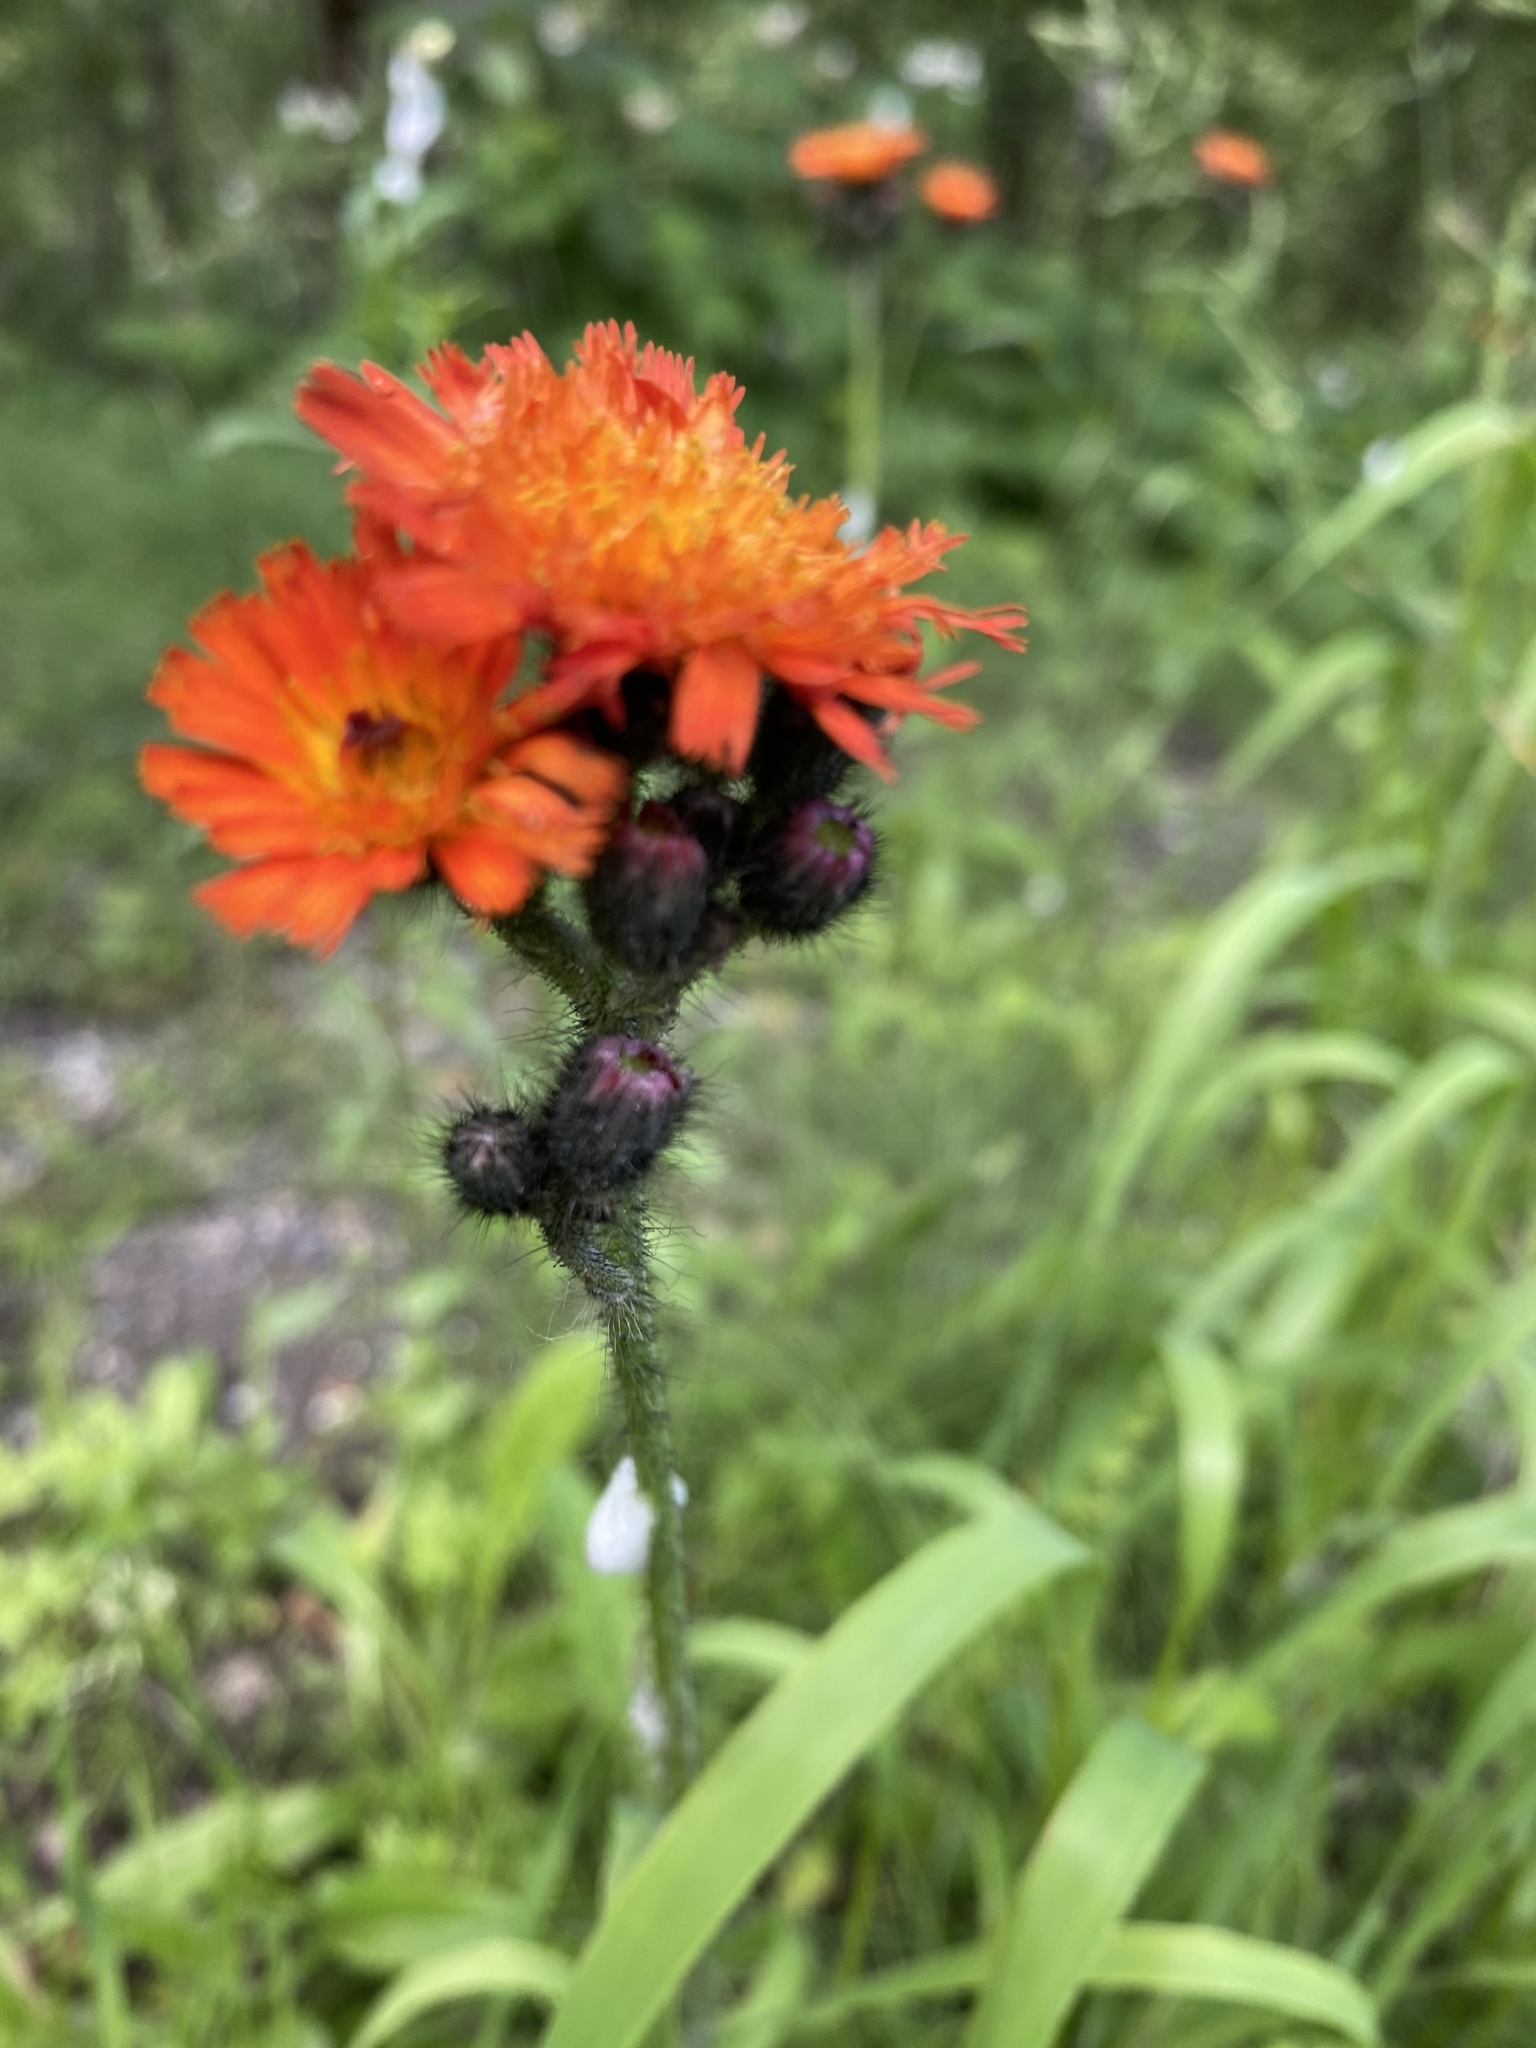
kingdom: Plantae
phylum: Tracheophyta
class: Magnoliopsida
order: Asterales
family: Asteraceae
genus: Pilosella
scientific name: Pilosella aurantiaca
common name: Fox-and-cubs
